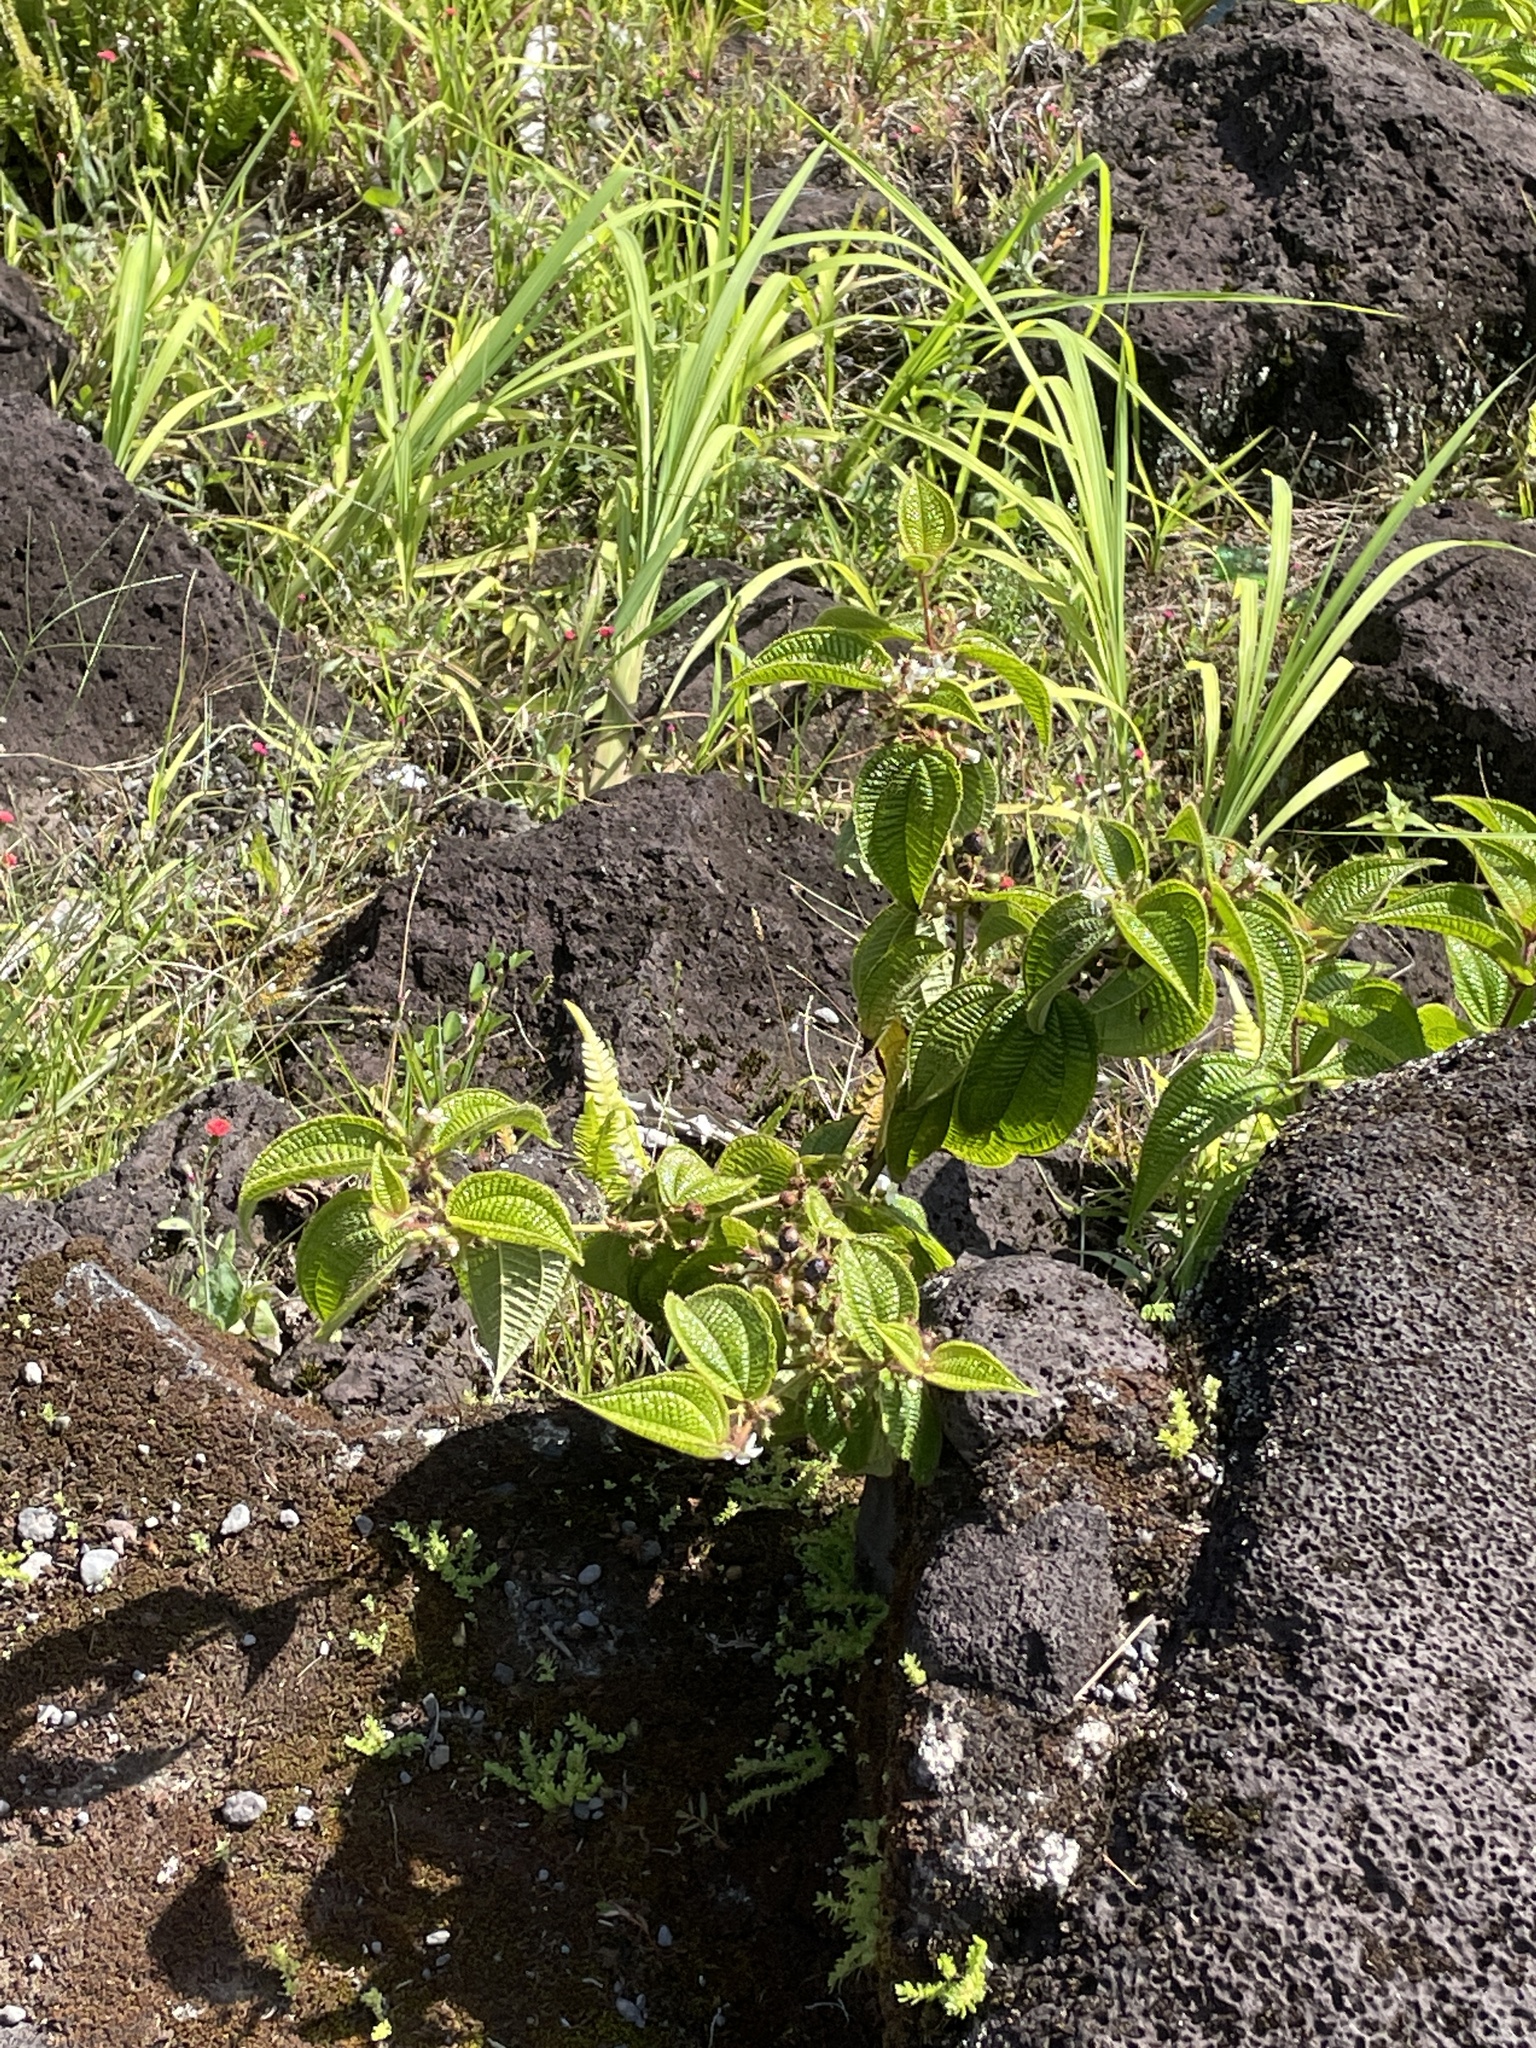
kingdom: Plantae
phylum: Tracheophyta
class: Magnoliopsida
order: Myrtales
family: Melastomataceae
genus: Miconia
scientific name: Miconia crenata
